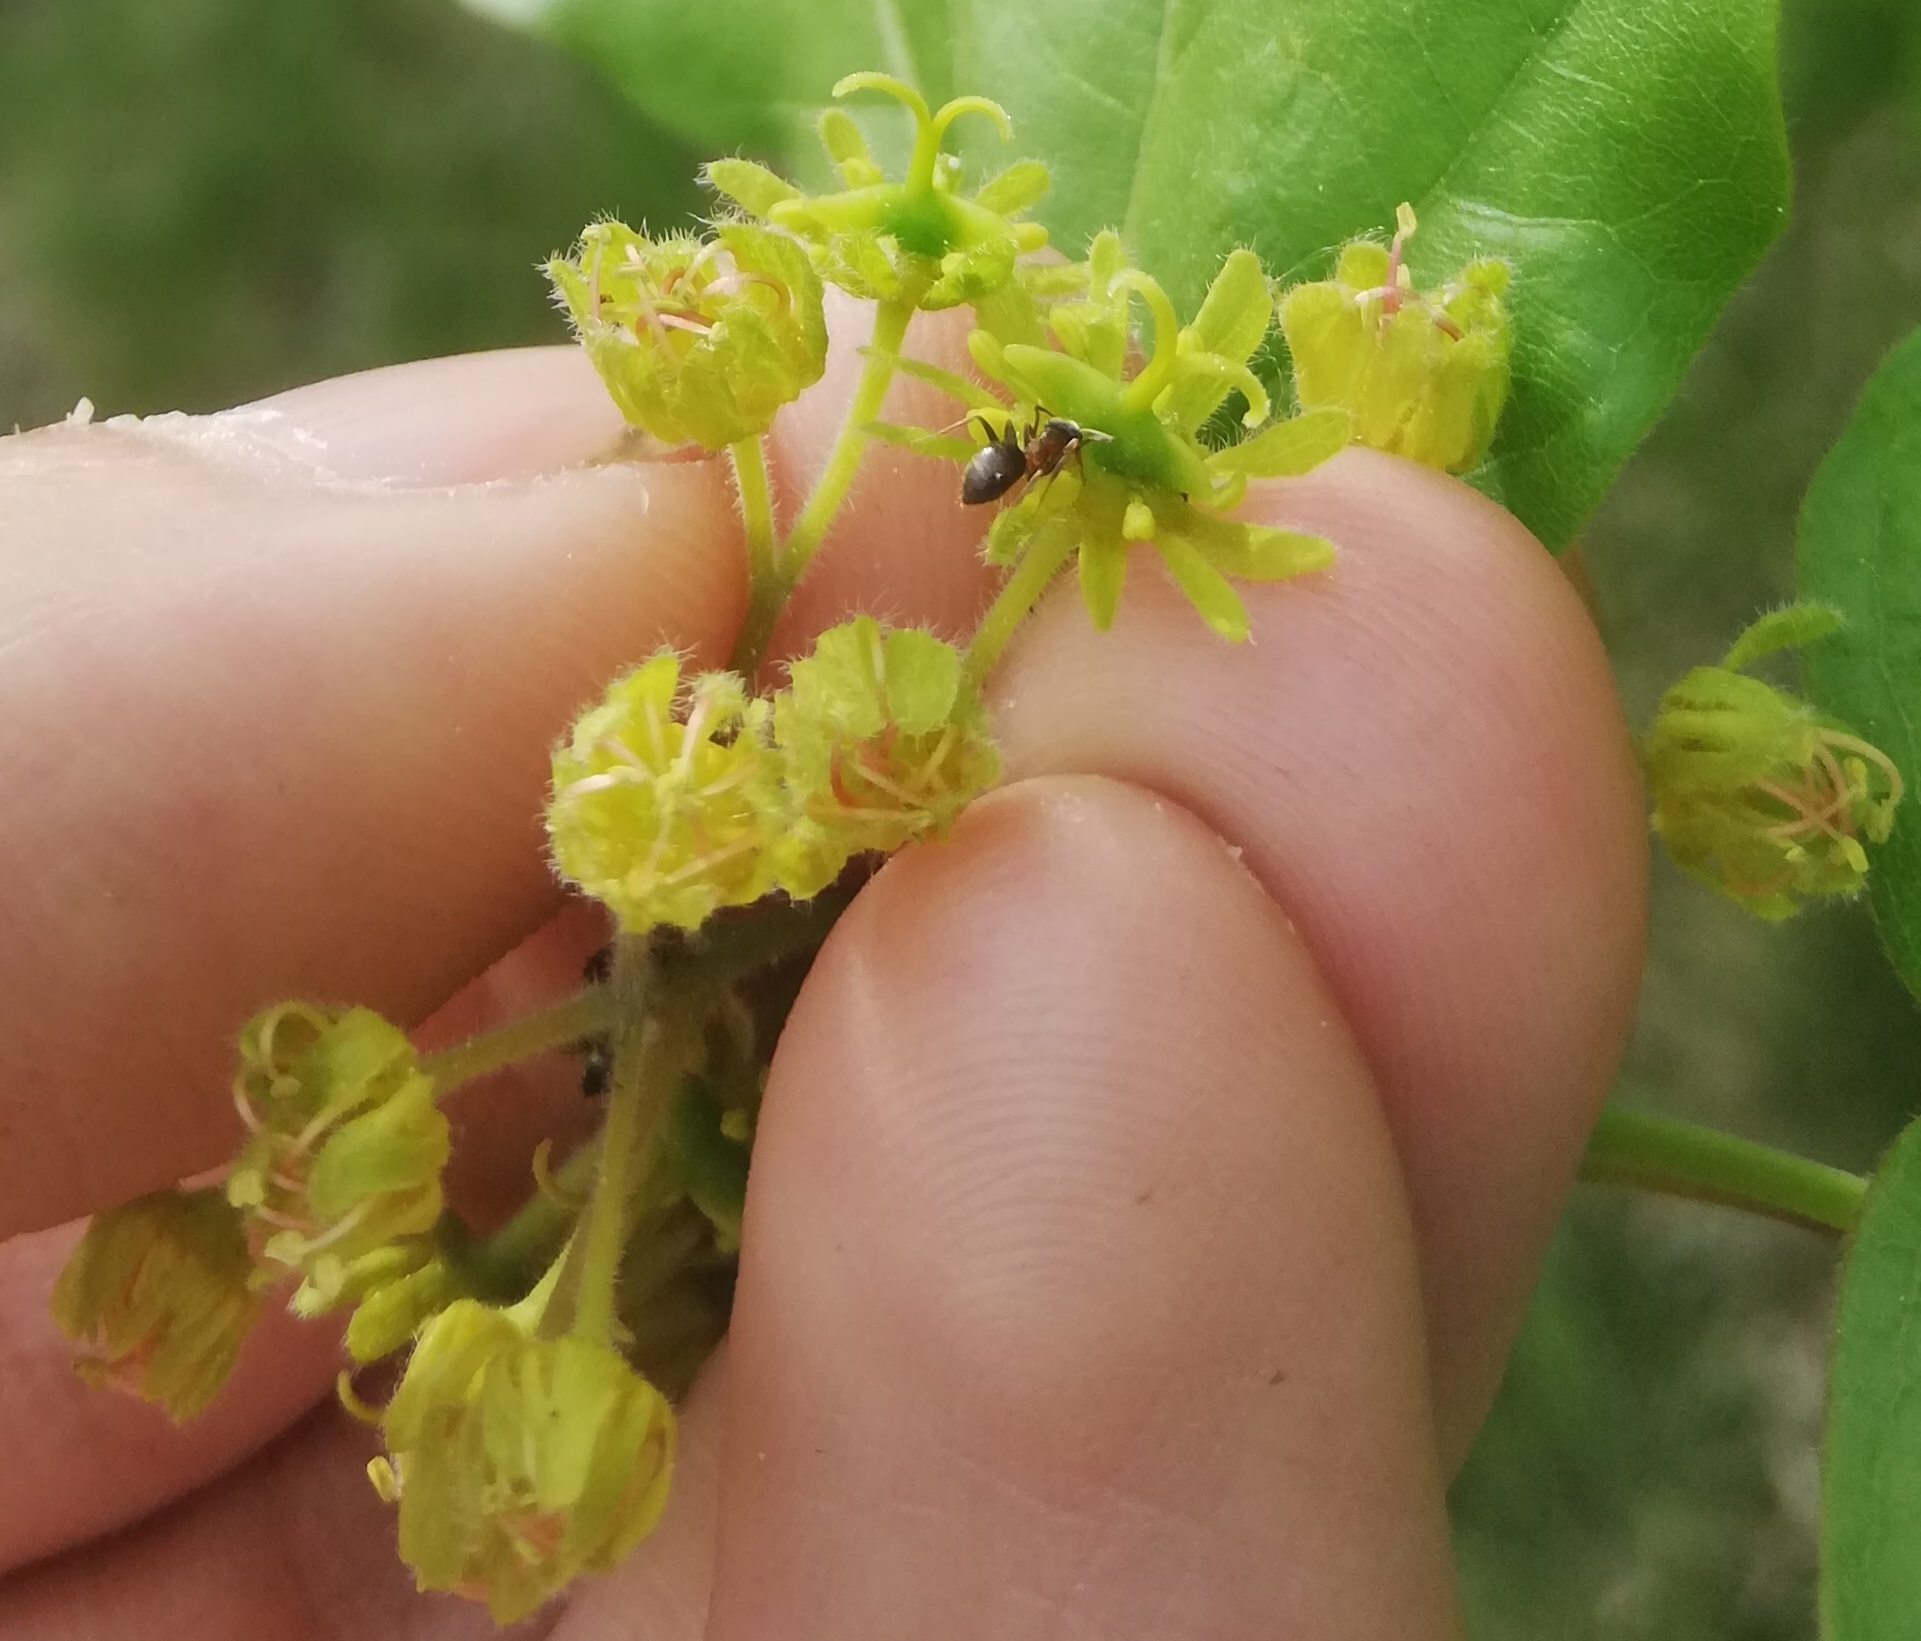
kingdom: Plantae
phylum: Tracheophyta
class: Magnoliopsida
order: Sapindales
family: Sapindaceae
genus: Acer
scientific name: Acer campestre
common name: Field maple
